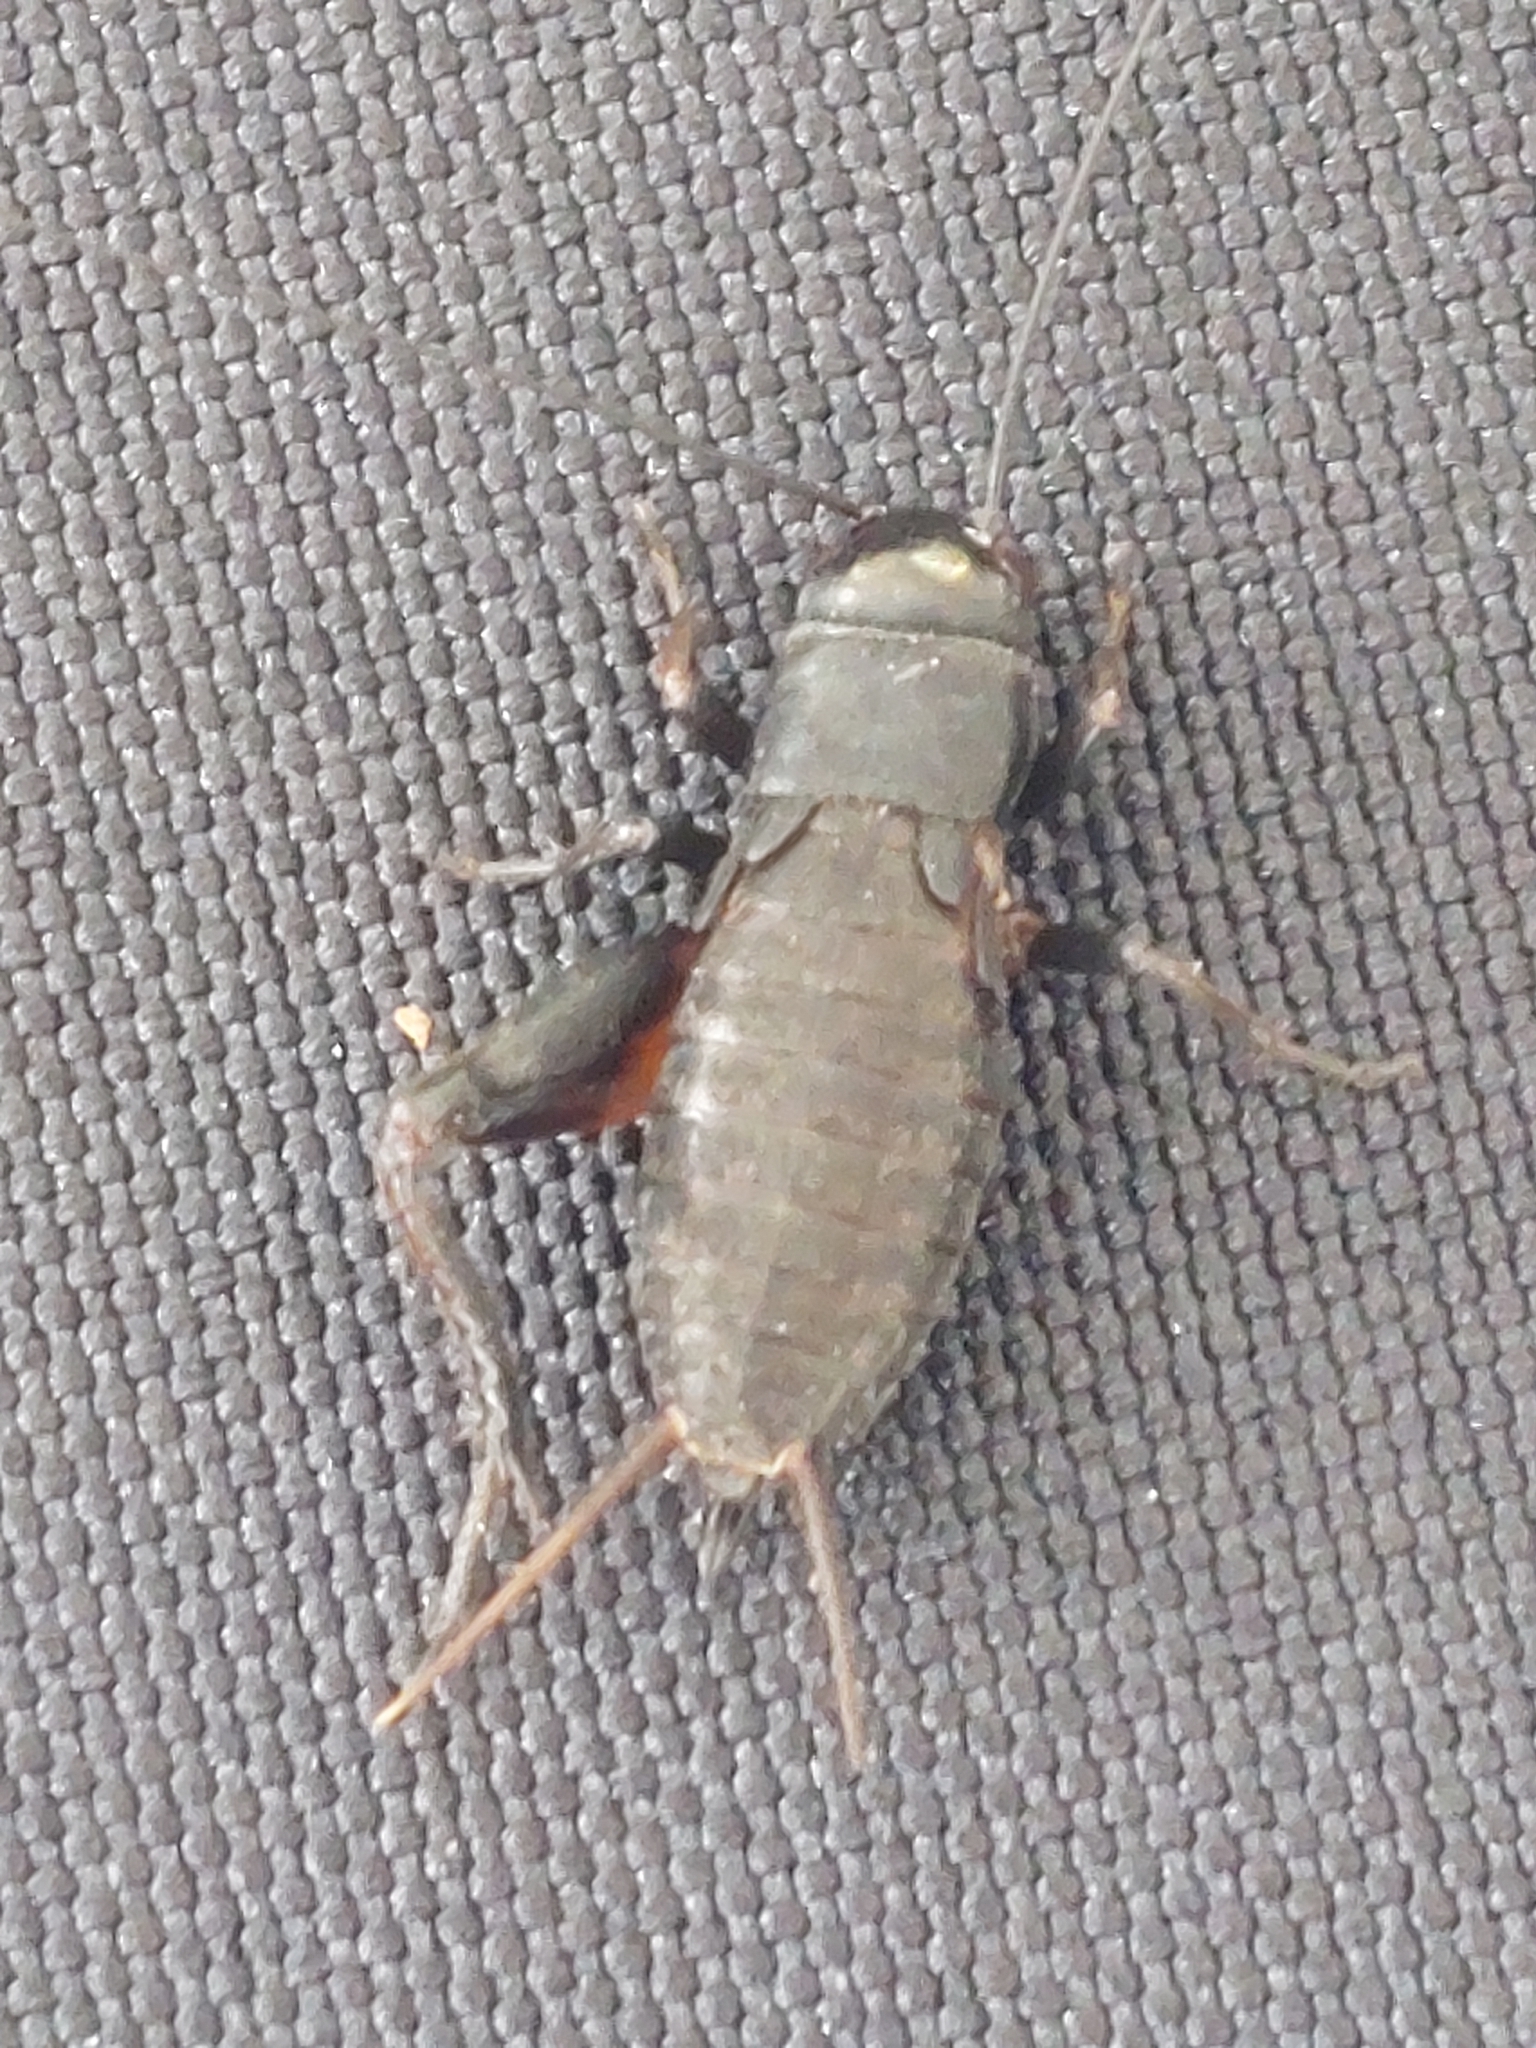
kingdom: Animalia
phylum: Arthropoda
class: Insecta
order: Orthoptera
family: Gryllidae
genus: Gryllus
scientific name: Gryllus pennsylvanicus
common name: Fall field cricket
